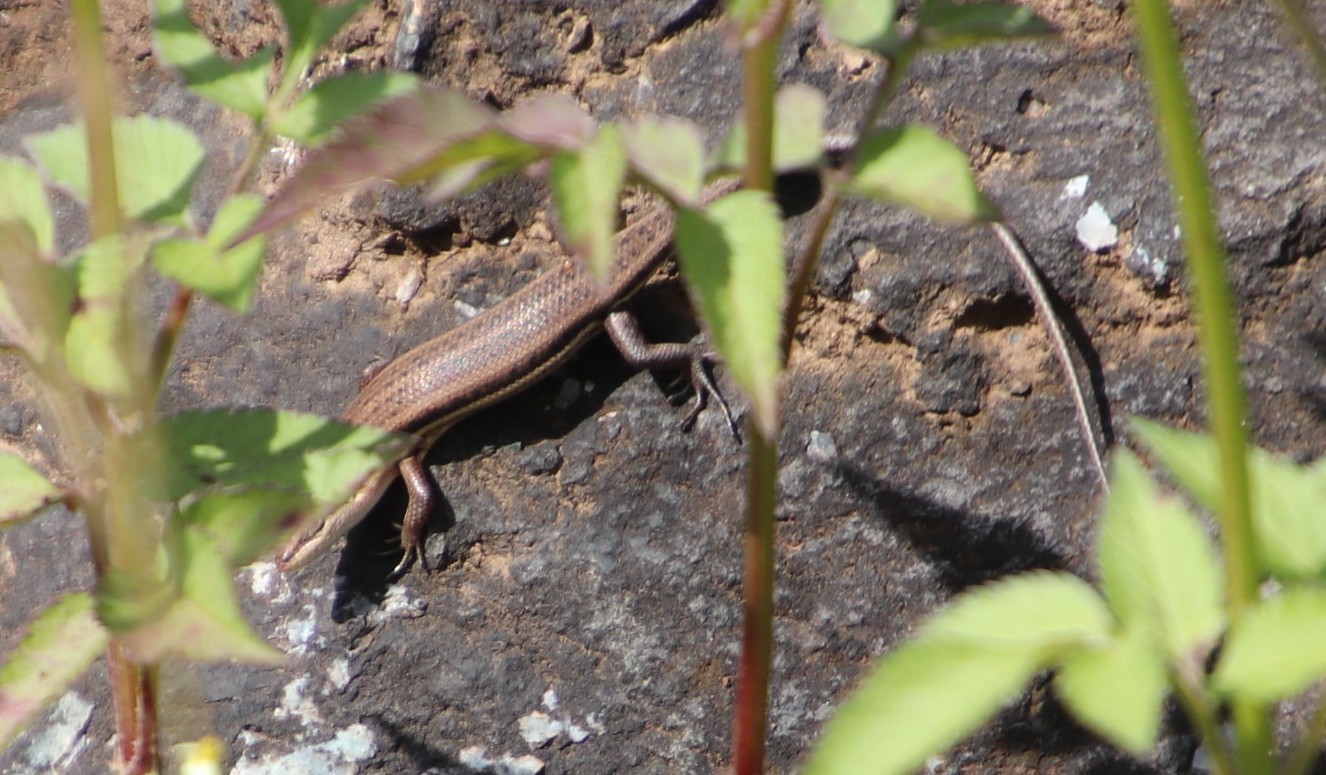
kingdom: Animalia
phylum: Chordata
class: Squamata
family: Scincidae
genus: Trachylepis
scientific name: Trachylepis varia
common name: Eastern variable skink
